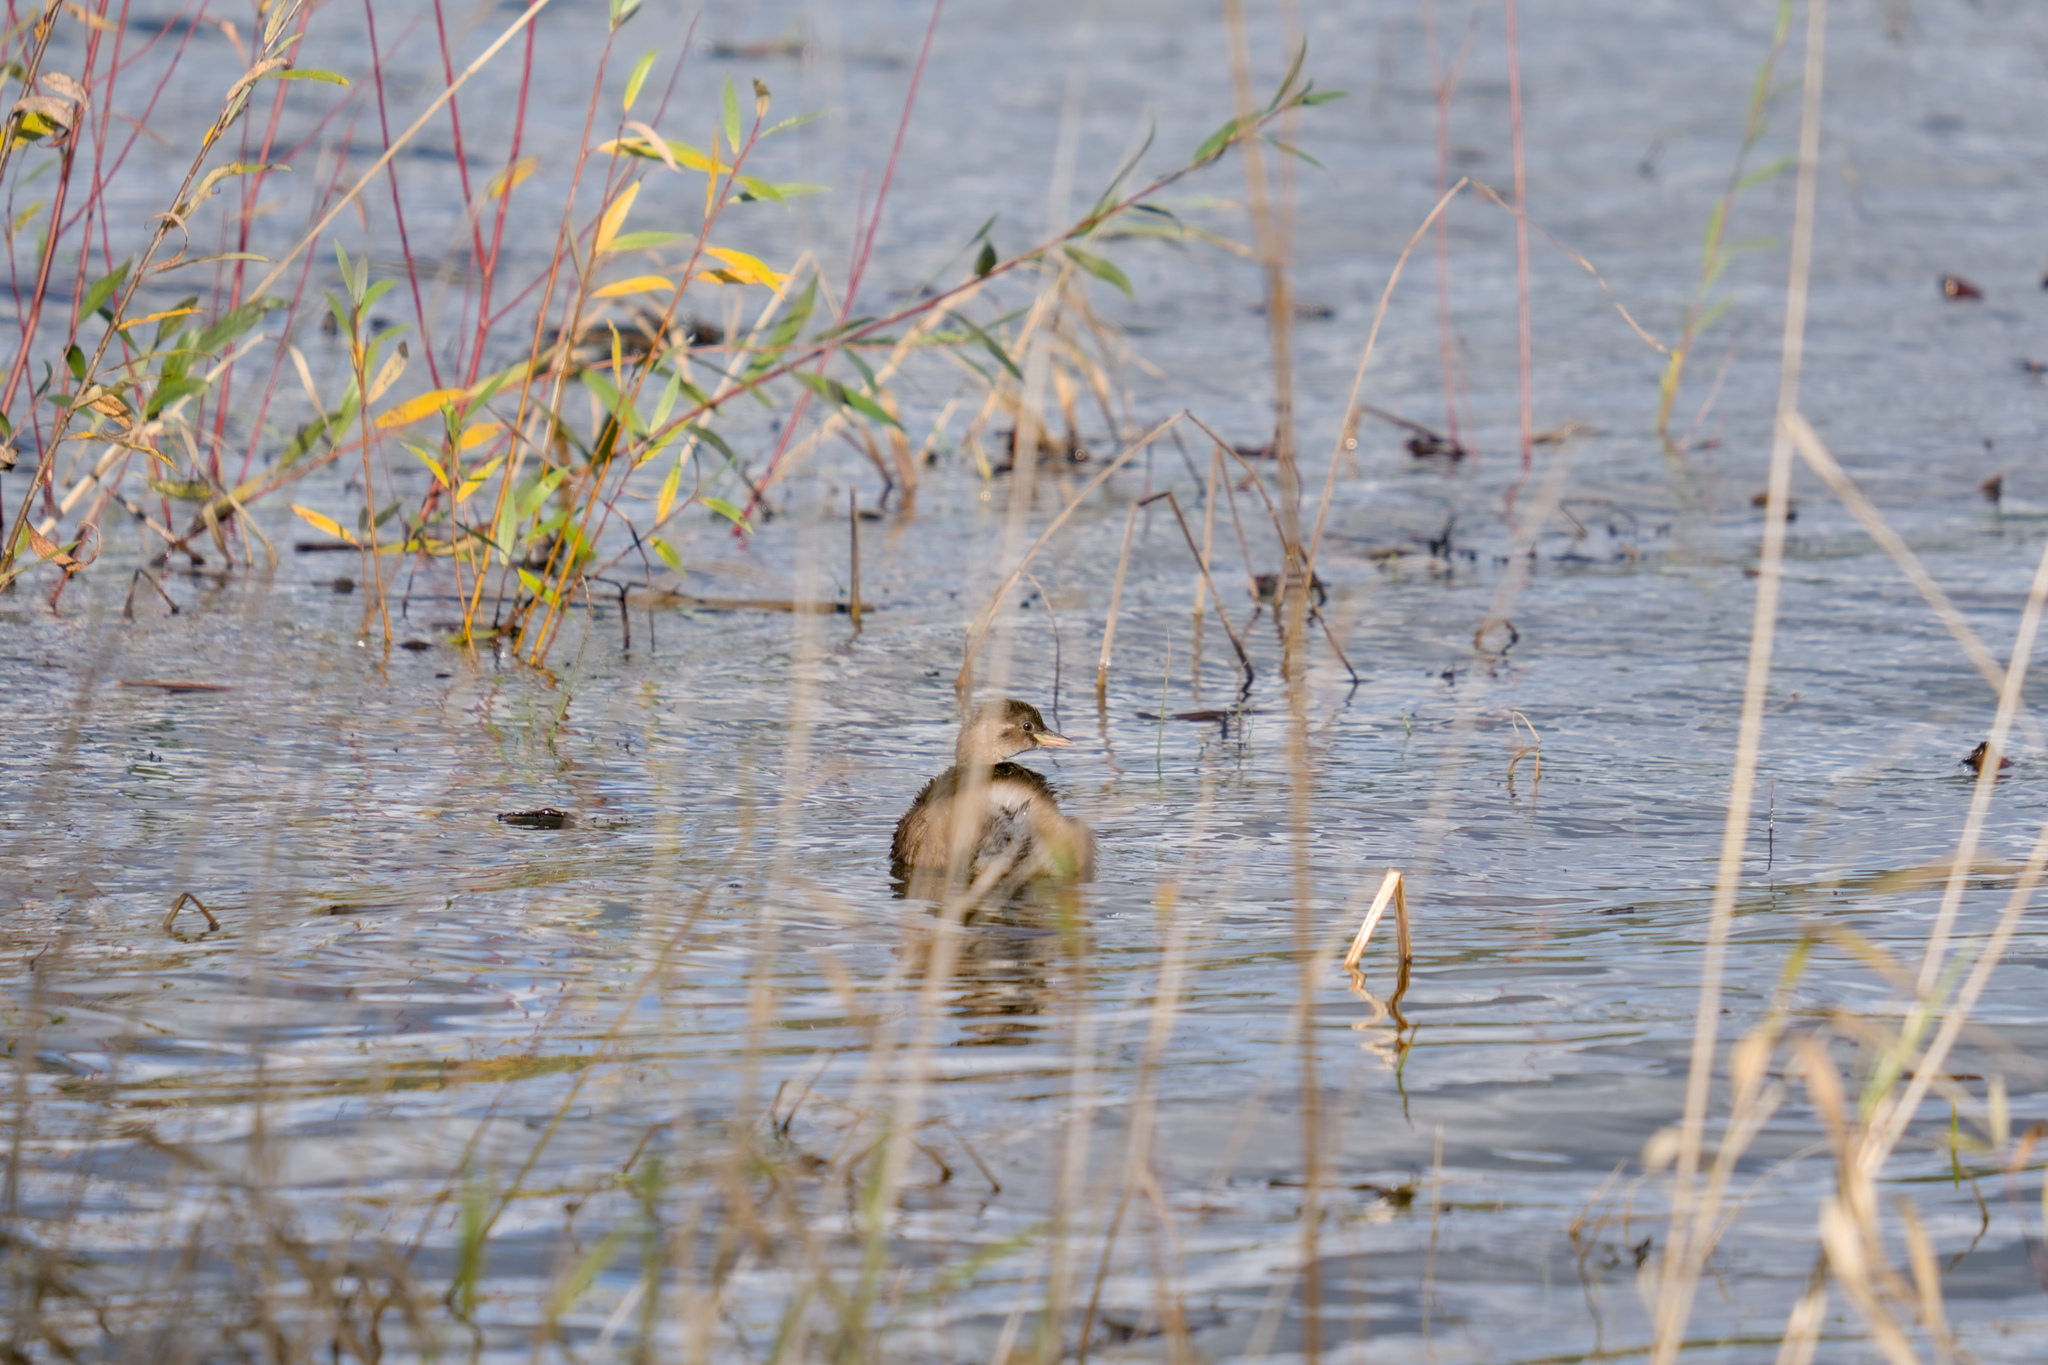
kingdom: Animalia
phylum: Chordata
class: Aves
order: Podicipediformes
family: Podicipedidae
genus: Tachybaptus
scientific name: Tachybaptus ruficollis
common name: Little grebe
